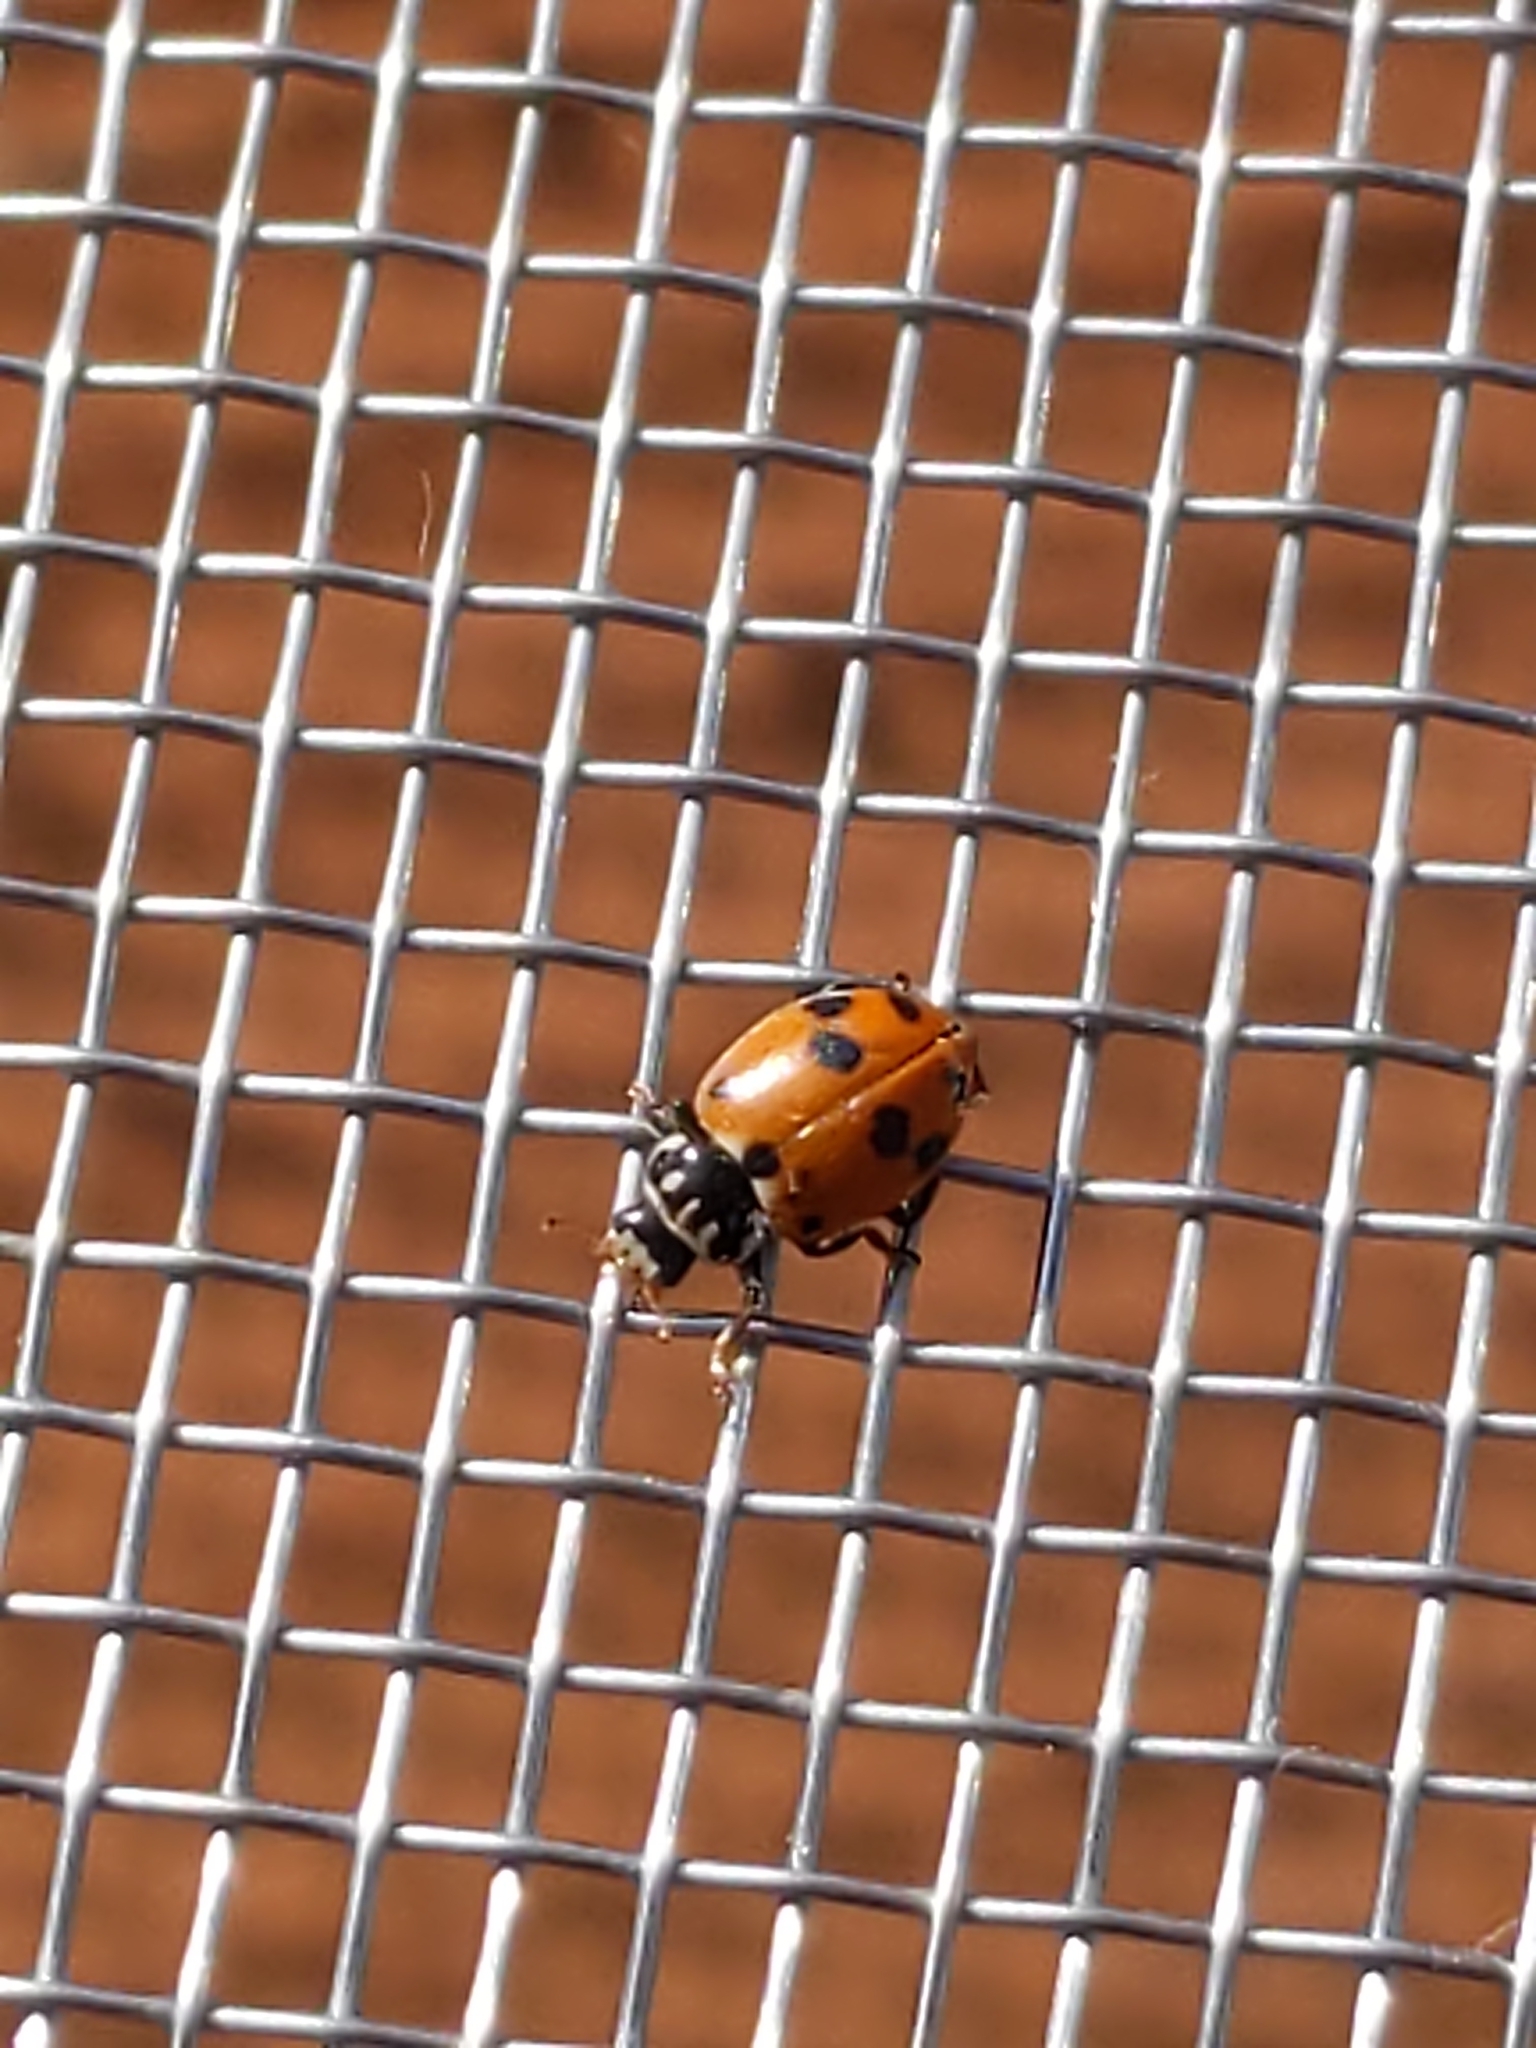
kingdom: Animalia
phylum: Arthropoda
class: Insecta
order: Coleoptera
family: Coccinellidae
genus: Hippodamia
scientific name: Hippodamia variegata
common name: Ladybird beetle
